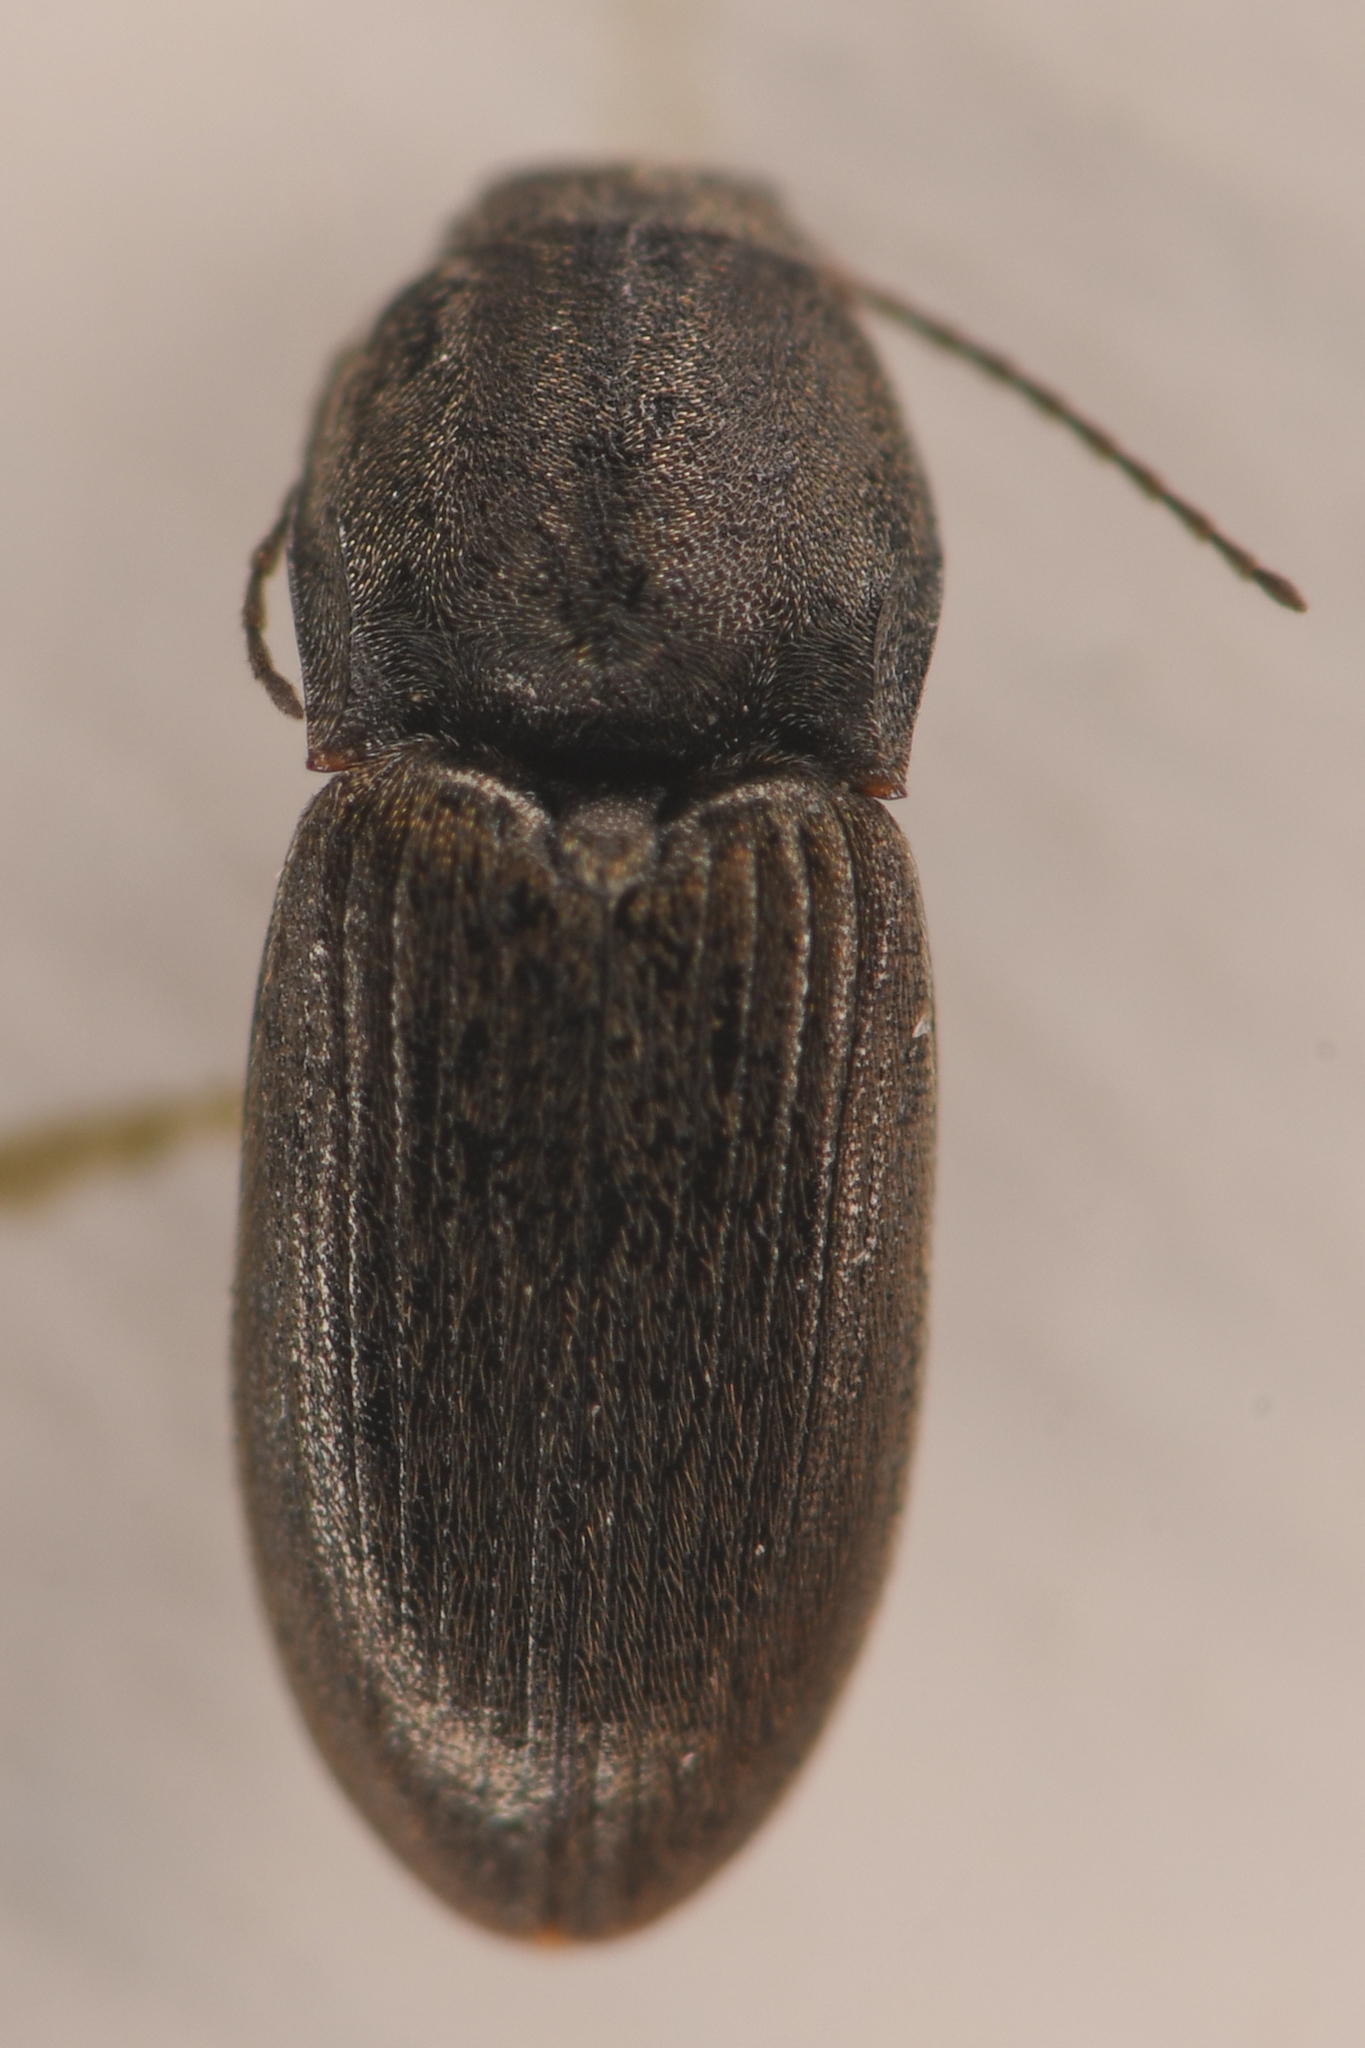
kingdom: Animalia
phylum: Arthropoda
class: Insecta
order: Coleoptera
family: Elateridae
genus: Microhypnus
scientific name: Microhypnus
